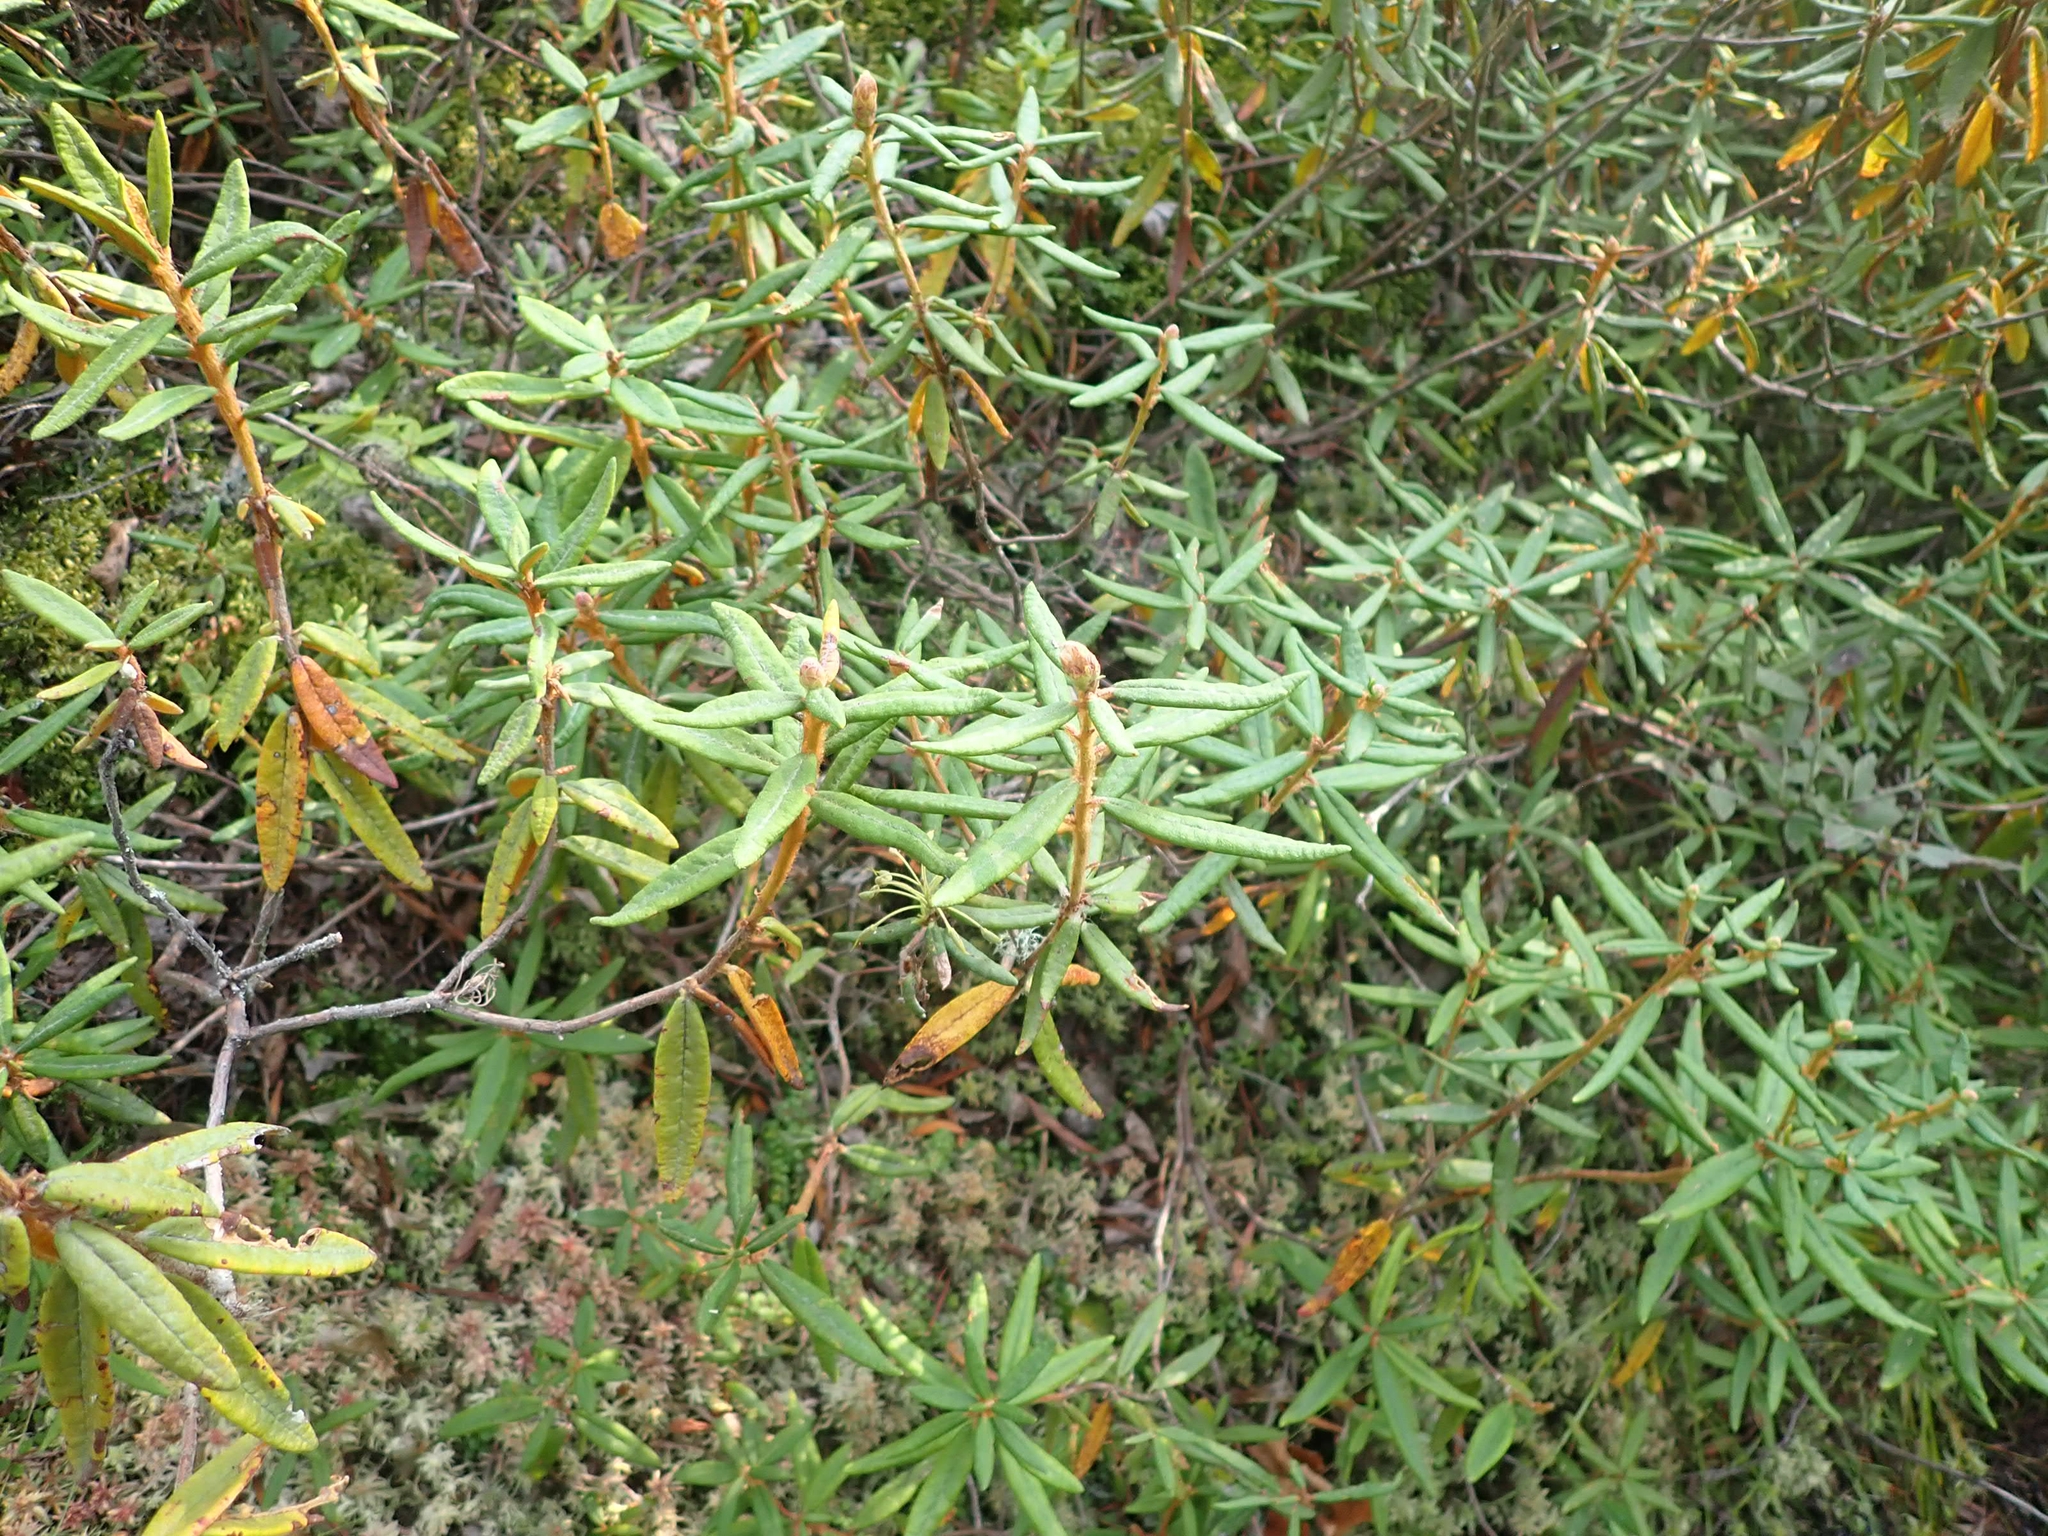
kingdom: Plantae
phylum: Tracheophyta
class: Magnoliopsida
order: Ericales
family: Ericaceae
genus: Rhododendron
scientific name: Rhododendron groenlandicum
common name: Bog labrador tea
